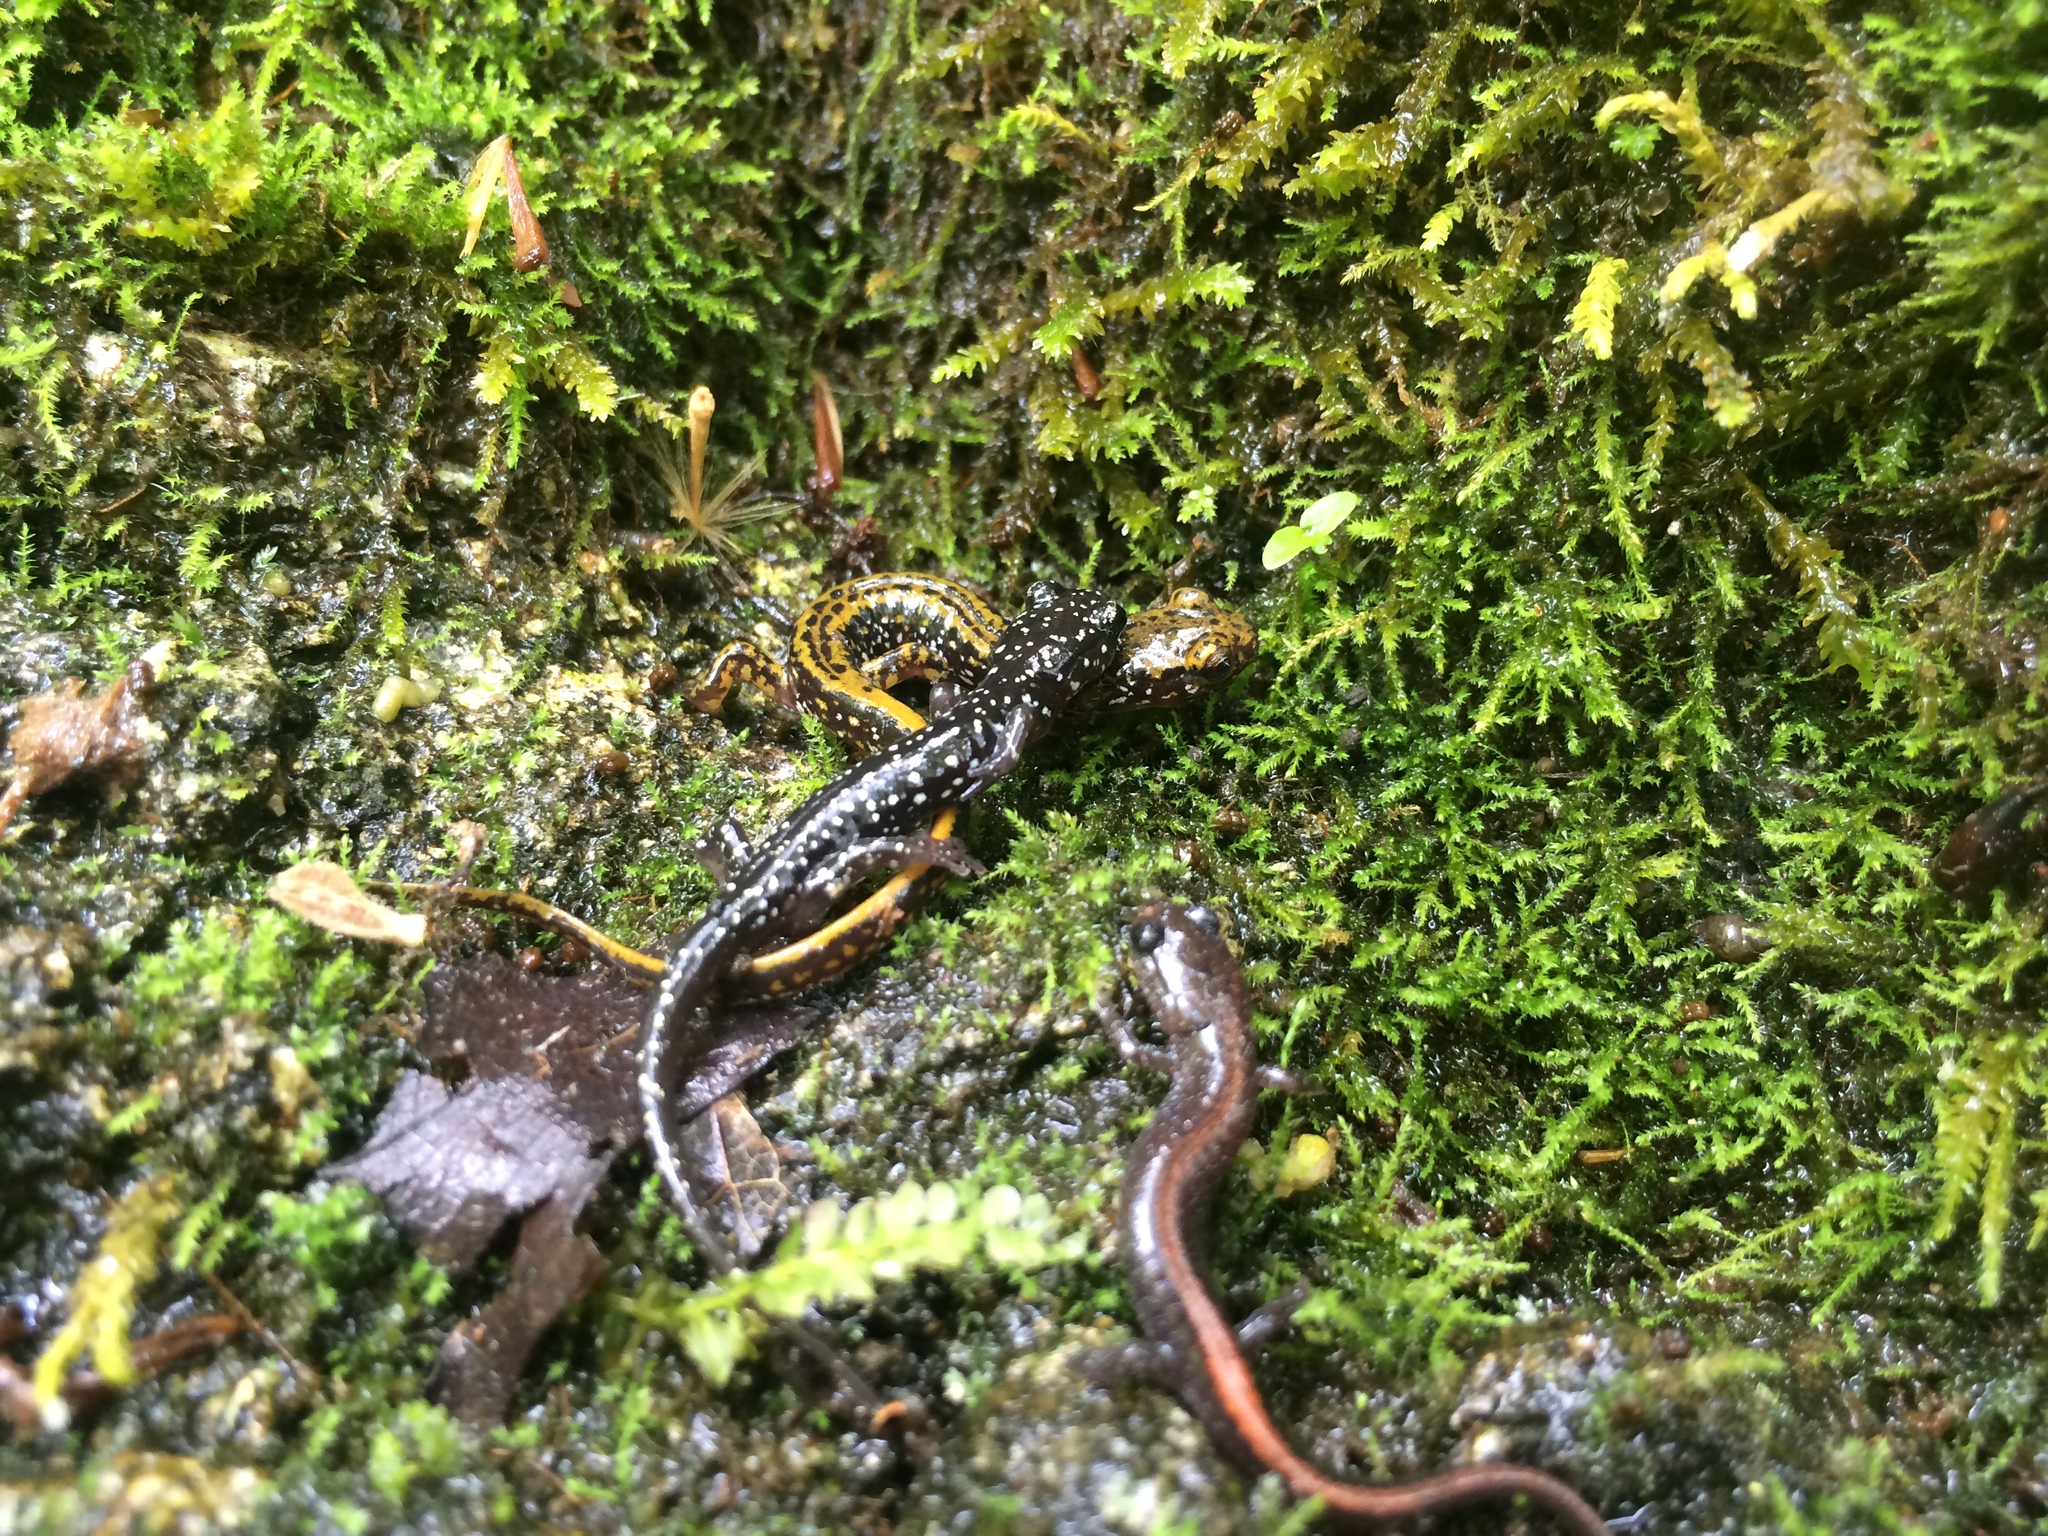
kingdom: Animalia
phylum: Chordata
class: Amphibia
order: Caudata
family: Plethodontidae
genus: Plethodon
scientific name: Plethodon angusticlavius
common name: Ozark zigzag salamander
